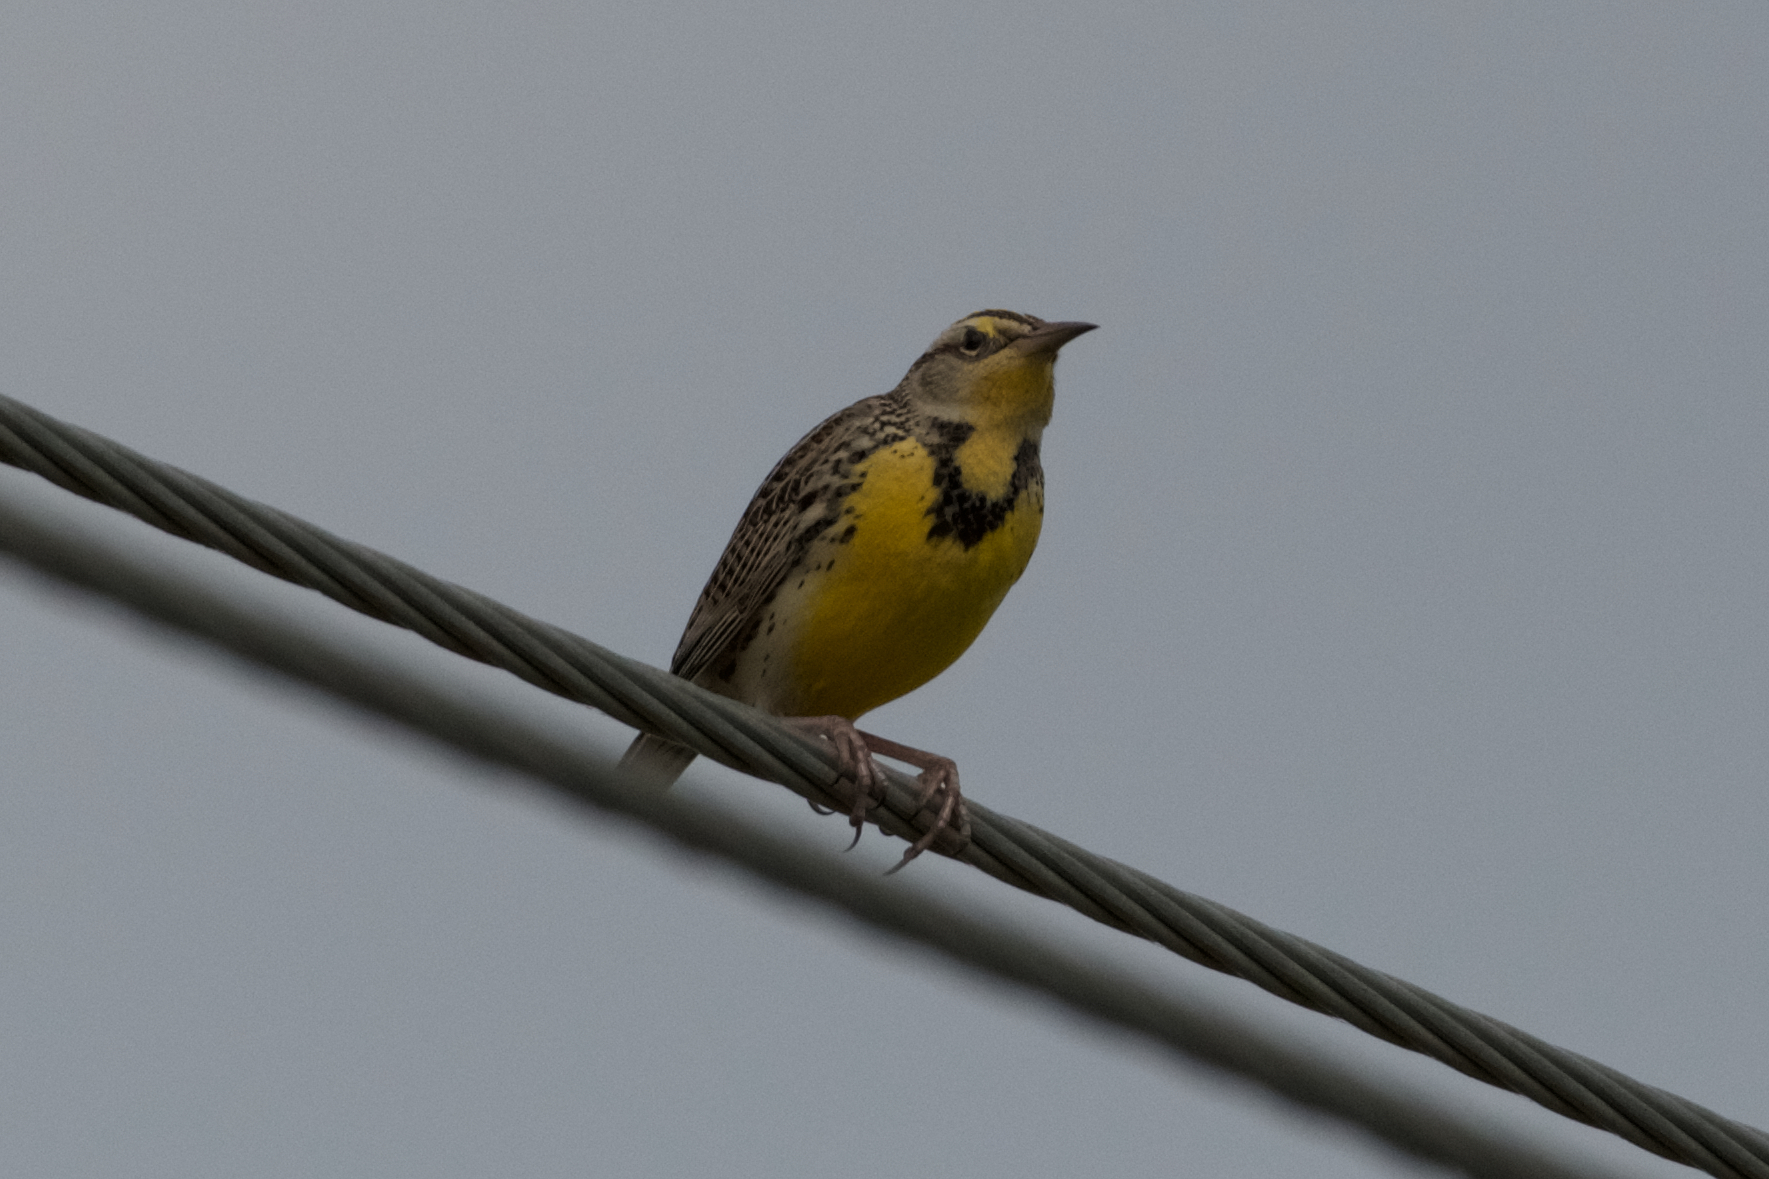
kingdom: Animalia
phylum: Chordata
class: Aves
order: Passeriformes
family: Icteridae
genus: Sturnella
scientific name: Sturnella neglecta
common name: Western meadowlark
